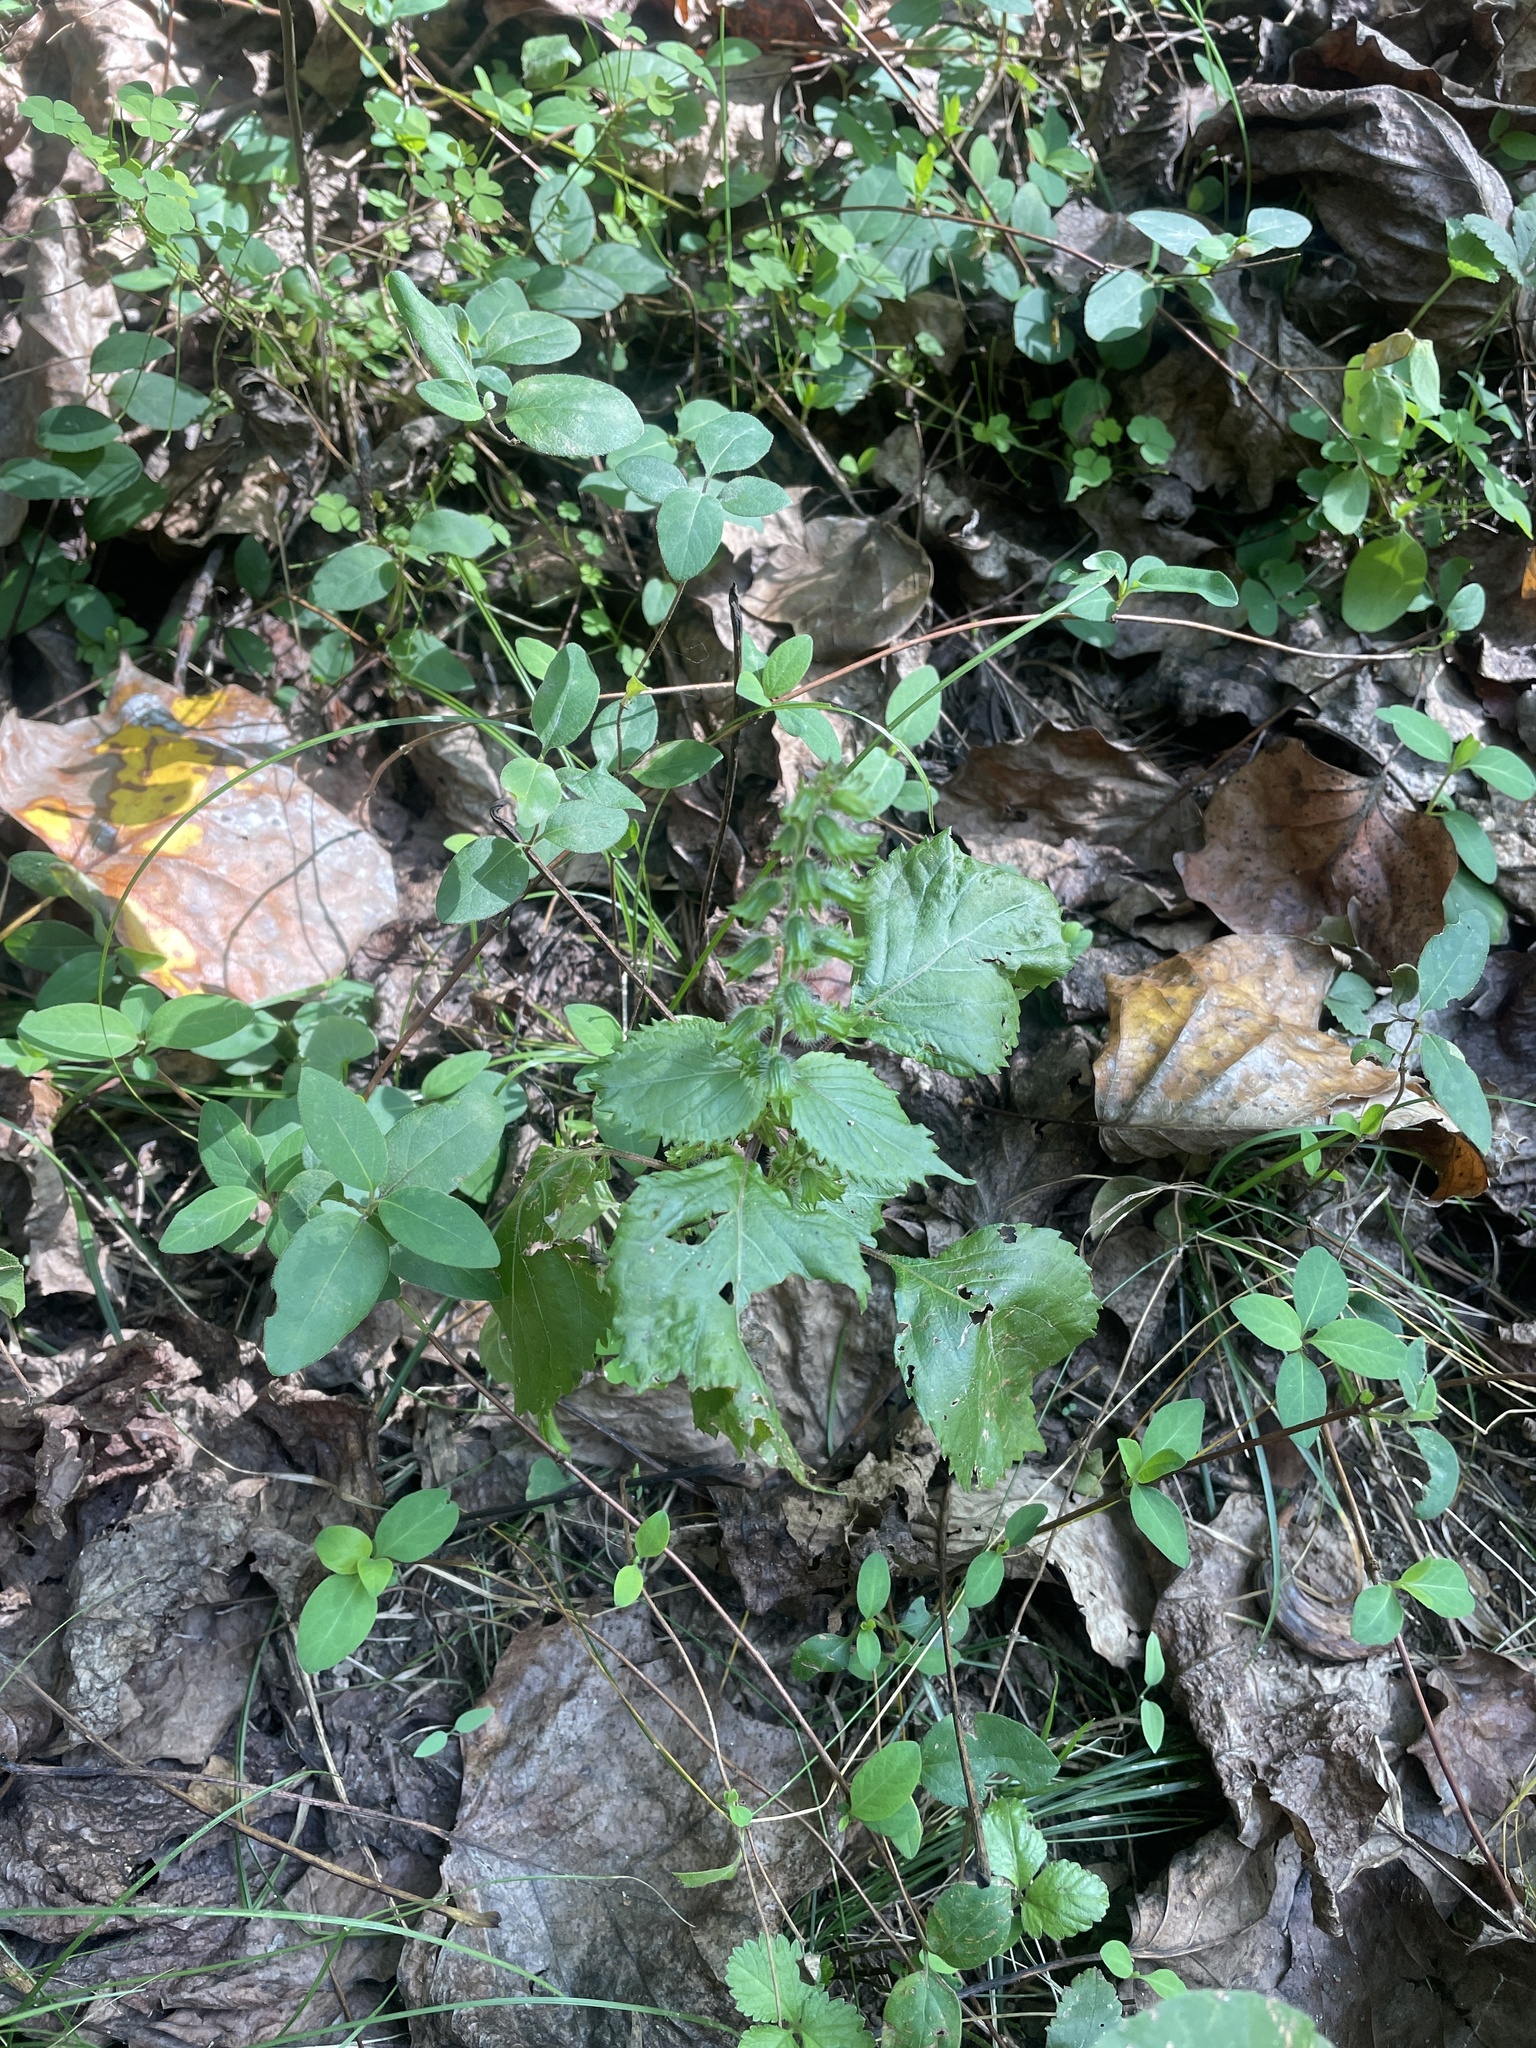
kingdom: Plantae
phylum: Tracheophyta
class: Magnoliopsida
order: Lamiales
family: Lamiaceae
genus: Perilla
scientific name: Perilla frutescens
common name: Perilla
